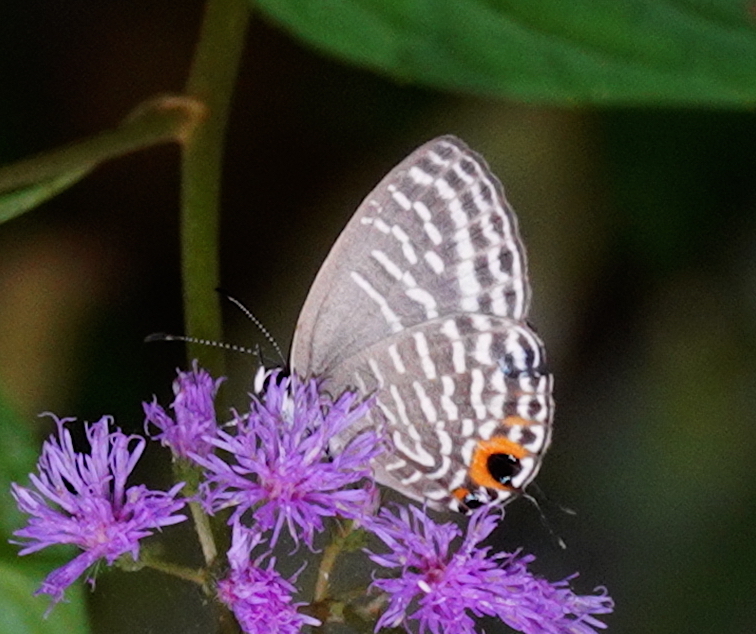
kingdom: Animalia
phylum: Arthropoda
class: Insecta
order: Lepidoptera
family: Lycaenidae
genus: Jamides
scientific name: Jamides espada
